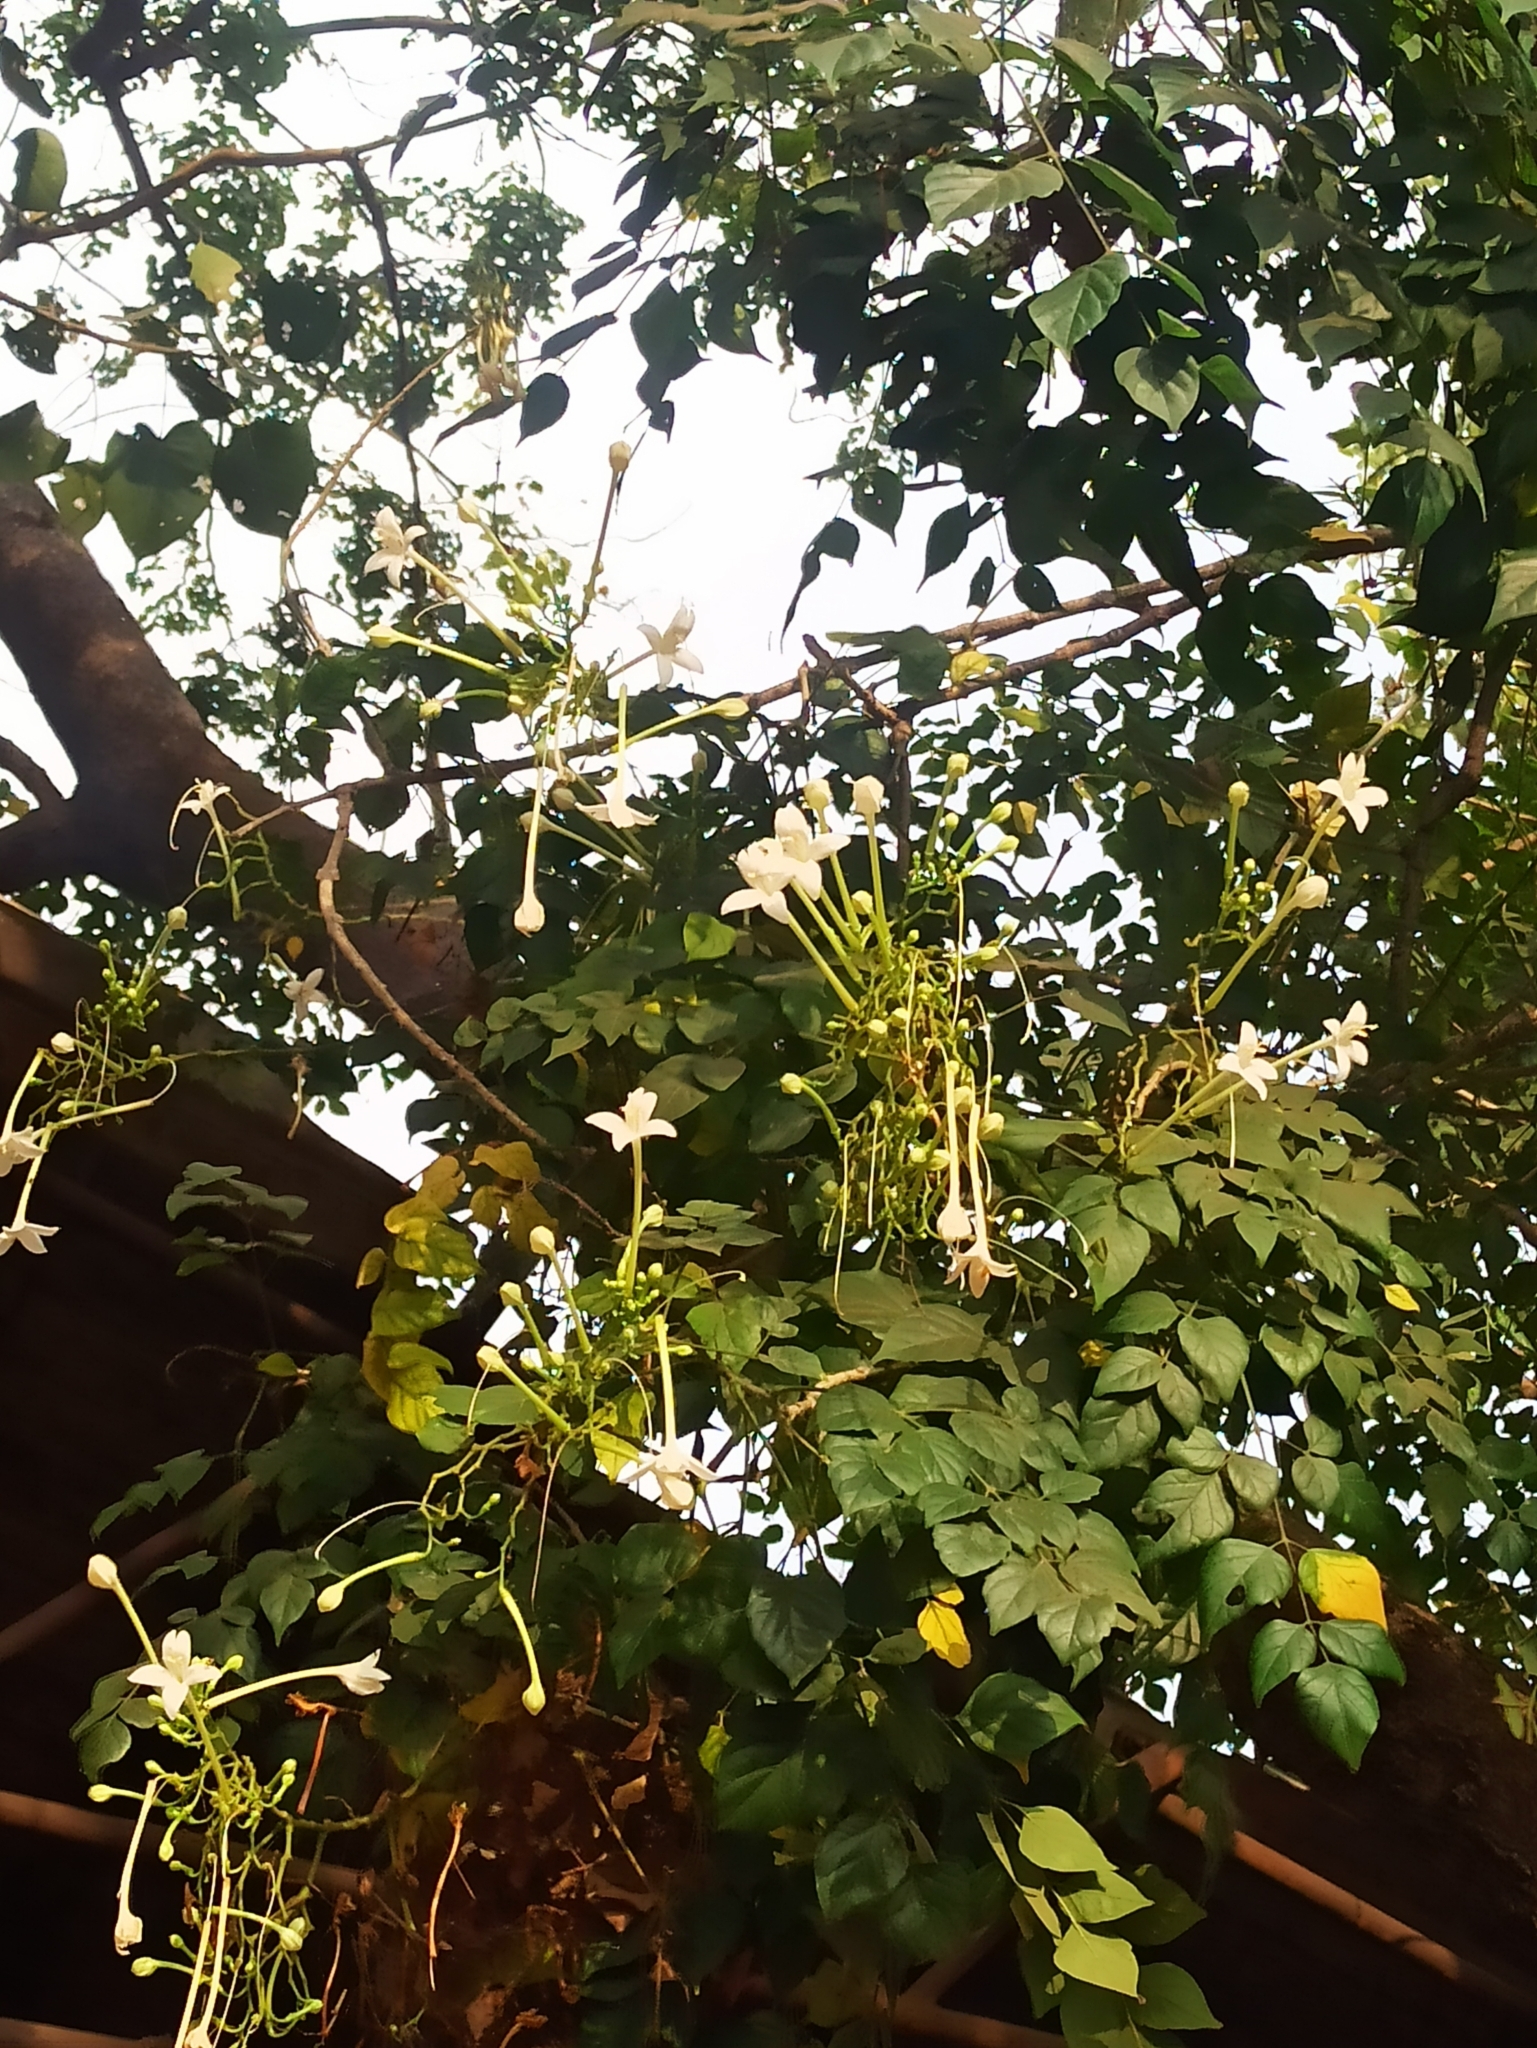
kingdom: Plantae
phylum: Tracheophyta
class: Magnoliopsida
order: Lamiales
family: Bignoniaceae
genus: Millingtonia
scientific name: Millingtonia hortensis
